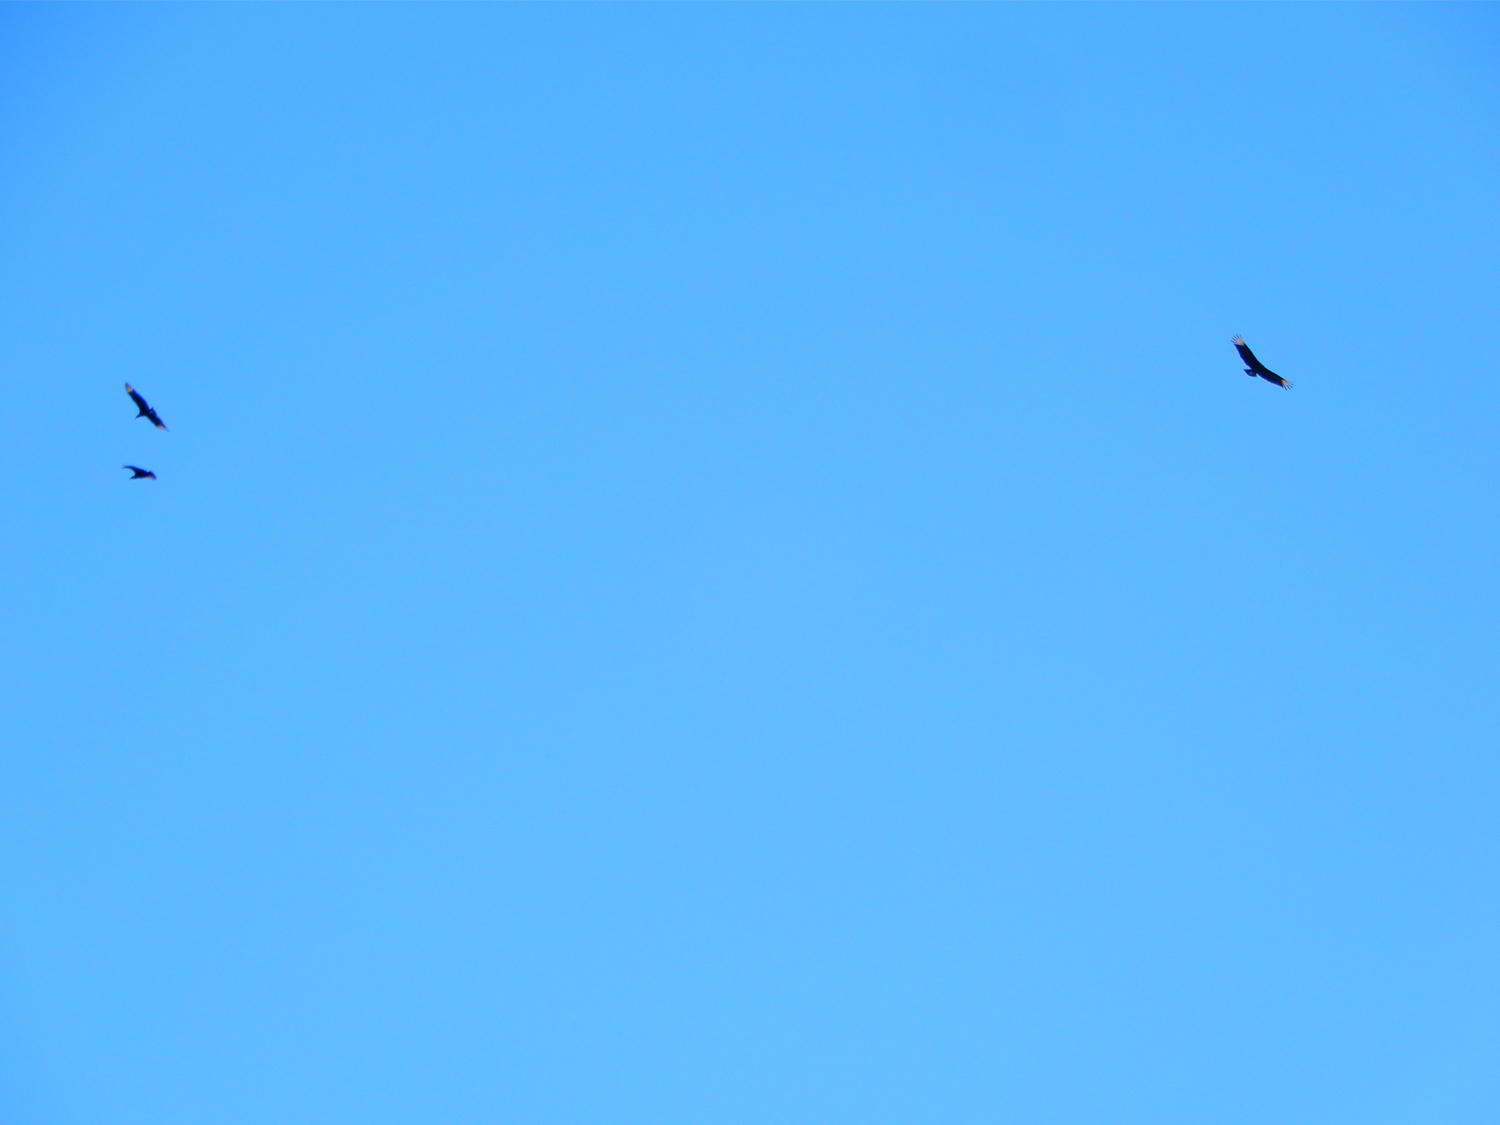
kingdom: Animalia
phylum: Chordata
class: Aves
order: Accipitriformes
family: Cathartidae
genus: Coragyps
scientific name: Coragyps atratus
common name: Black vulture
